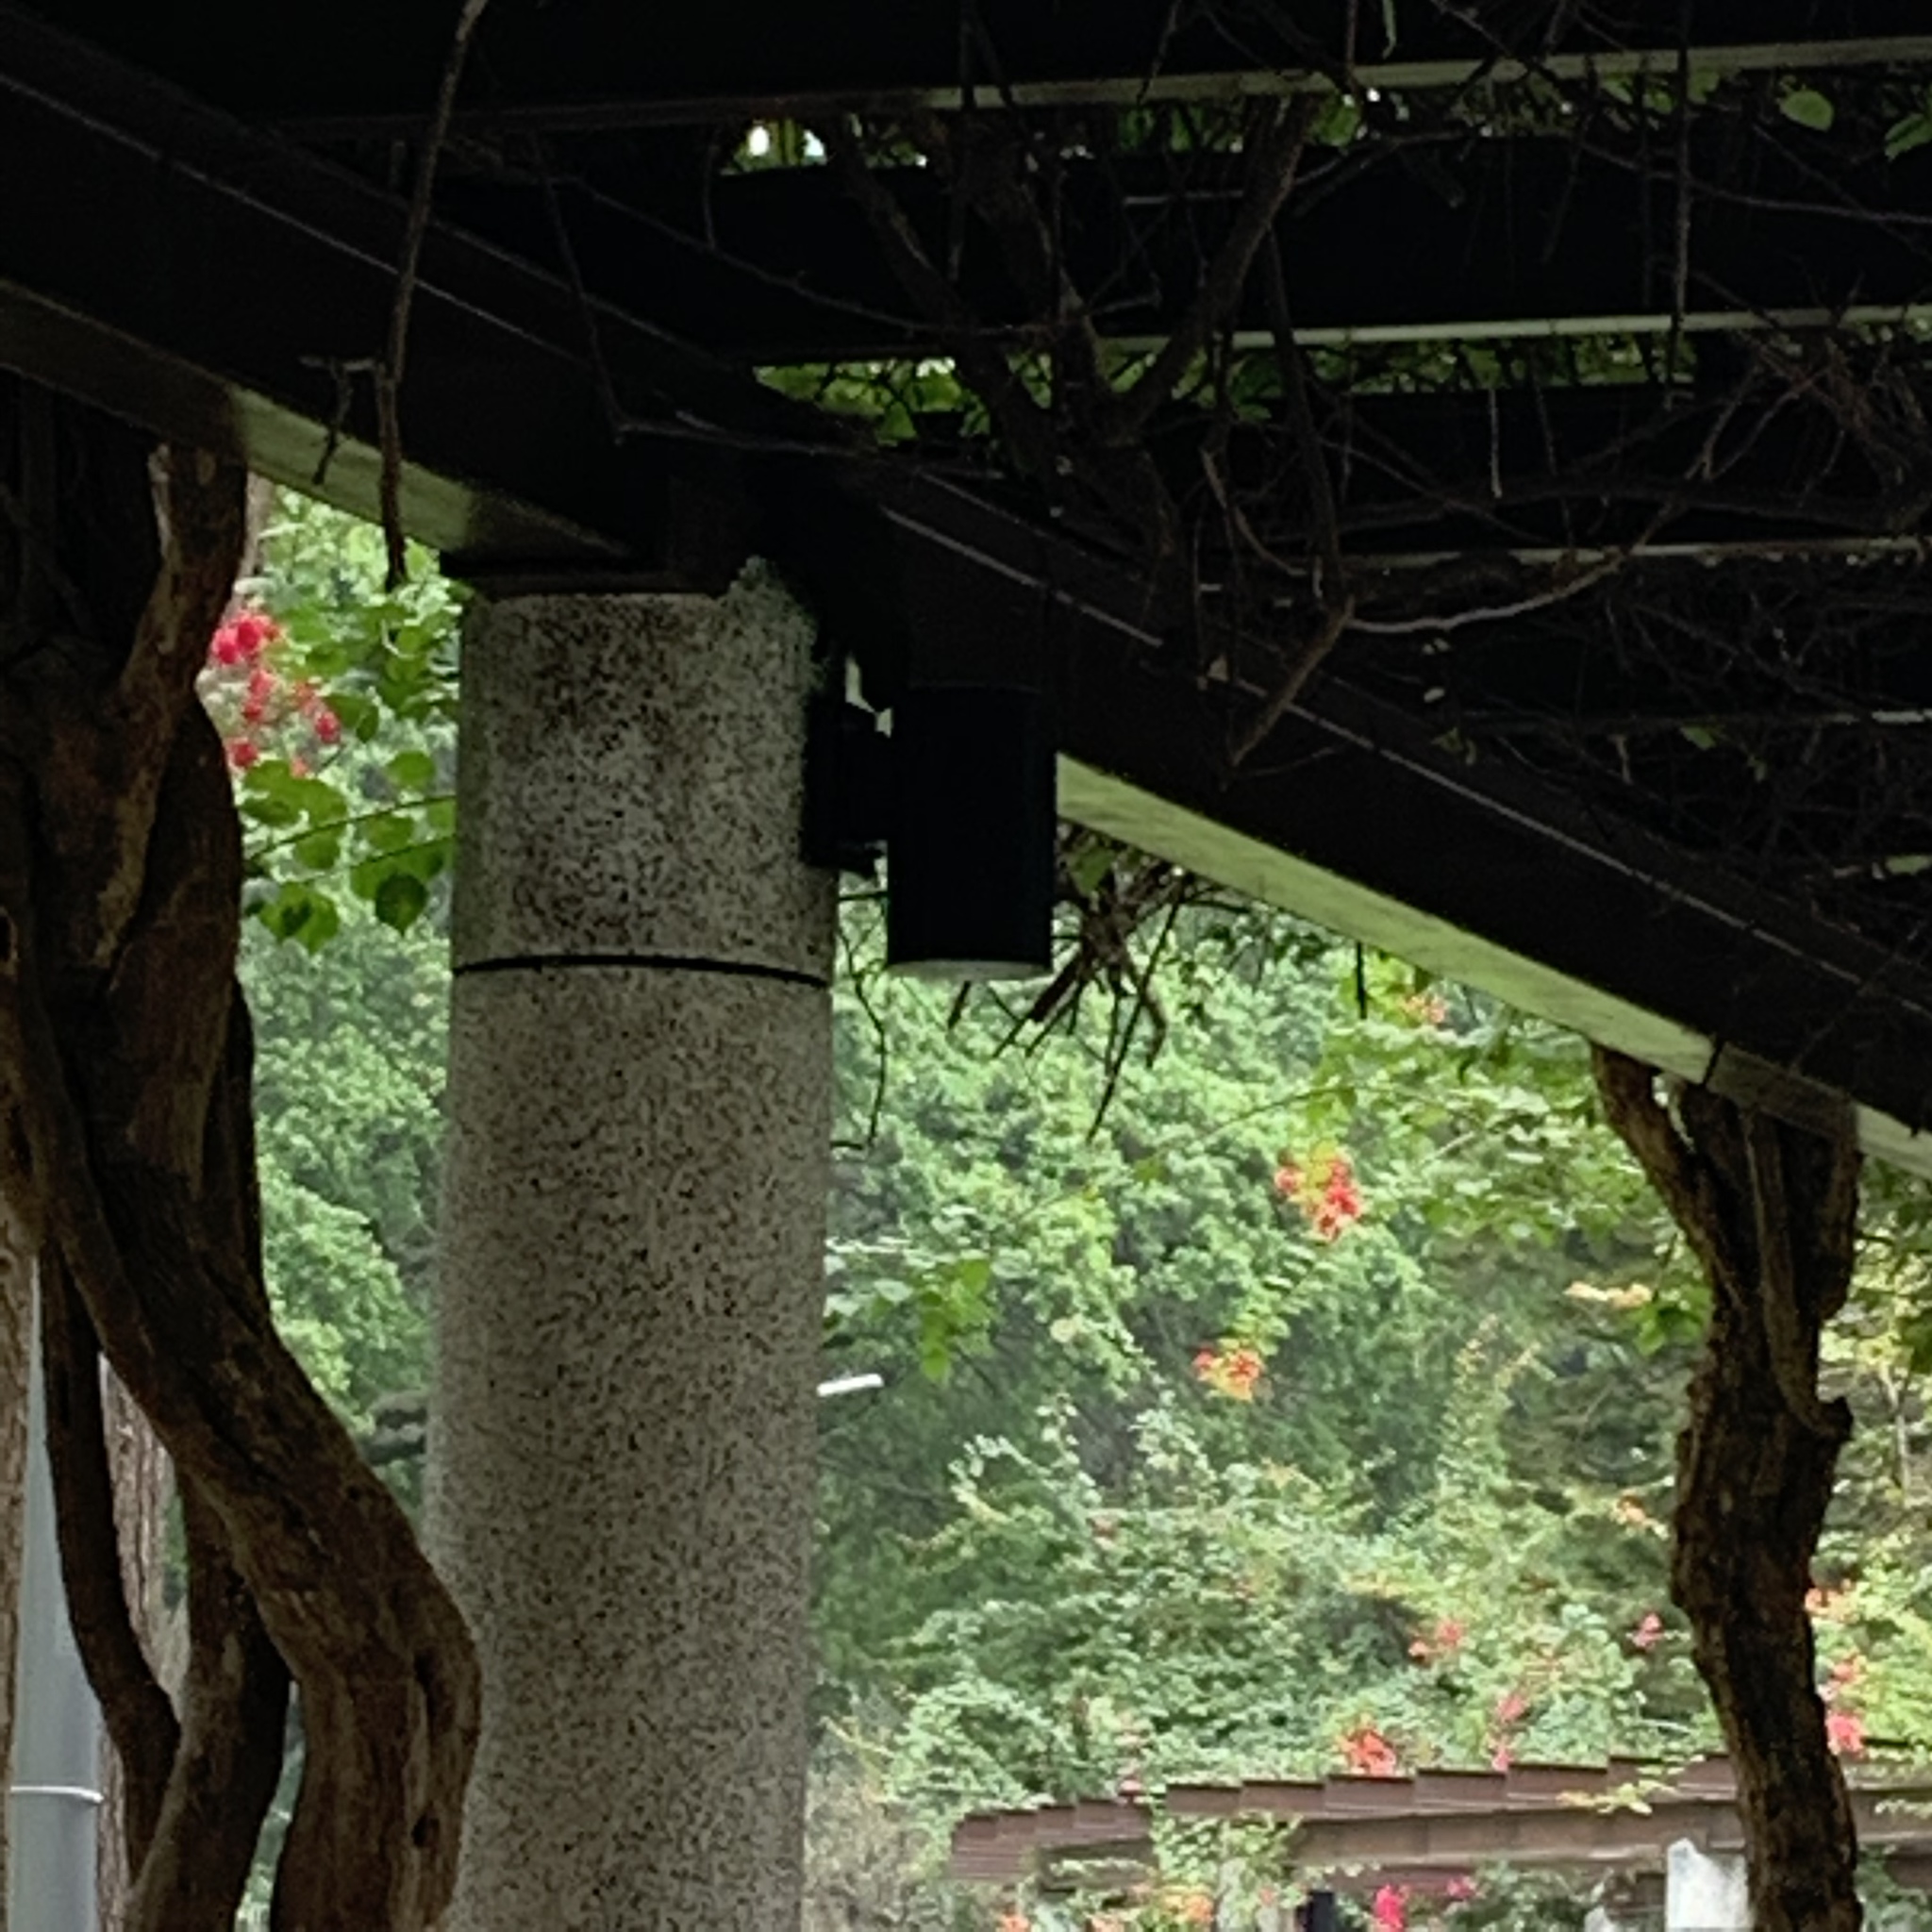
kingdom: Animalia
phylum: Chordata
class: Mammalia
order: Rodentia
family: Sciuridae
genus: Callosciurus
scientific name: Callosciurus erythraeus
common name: Pallas's squirrel
